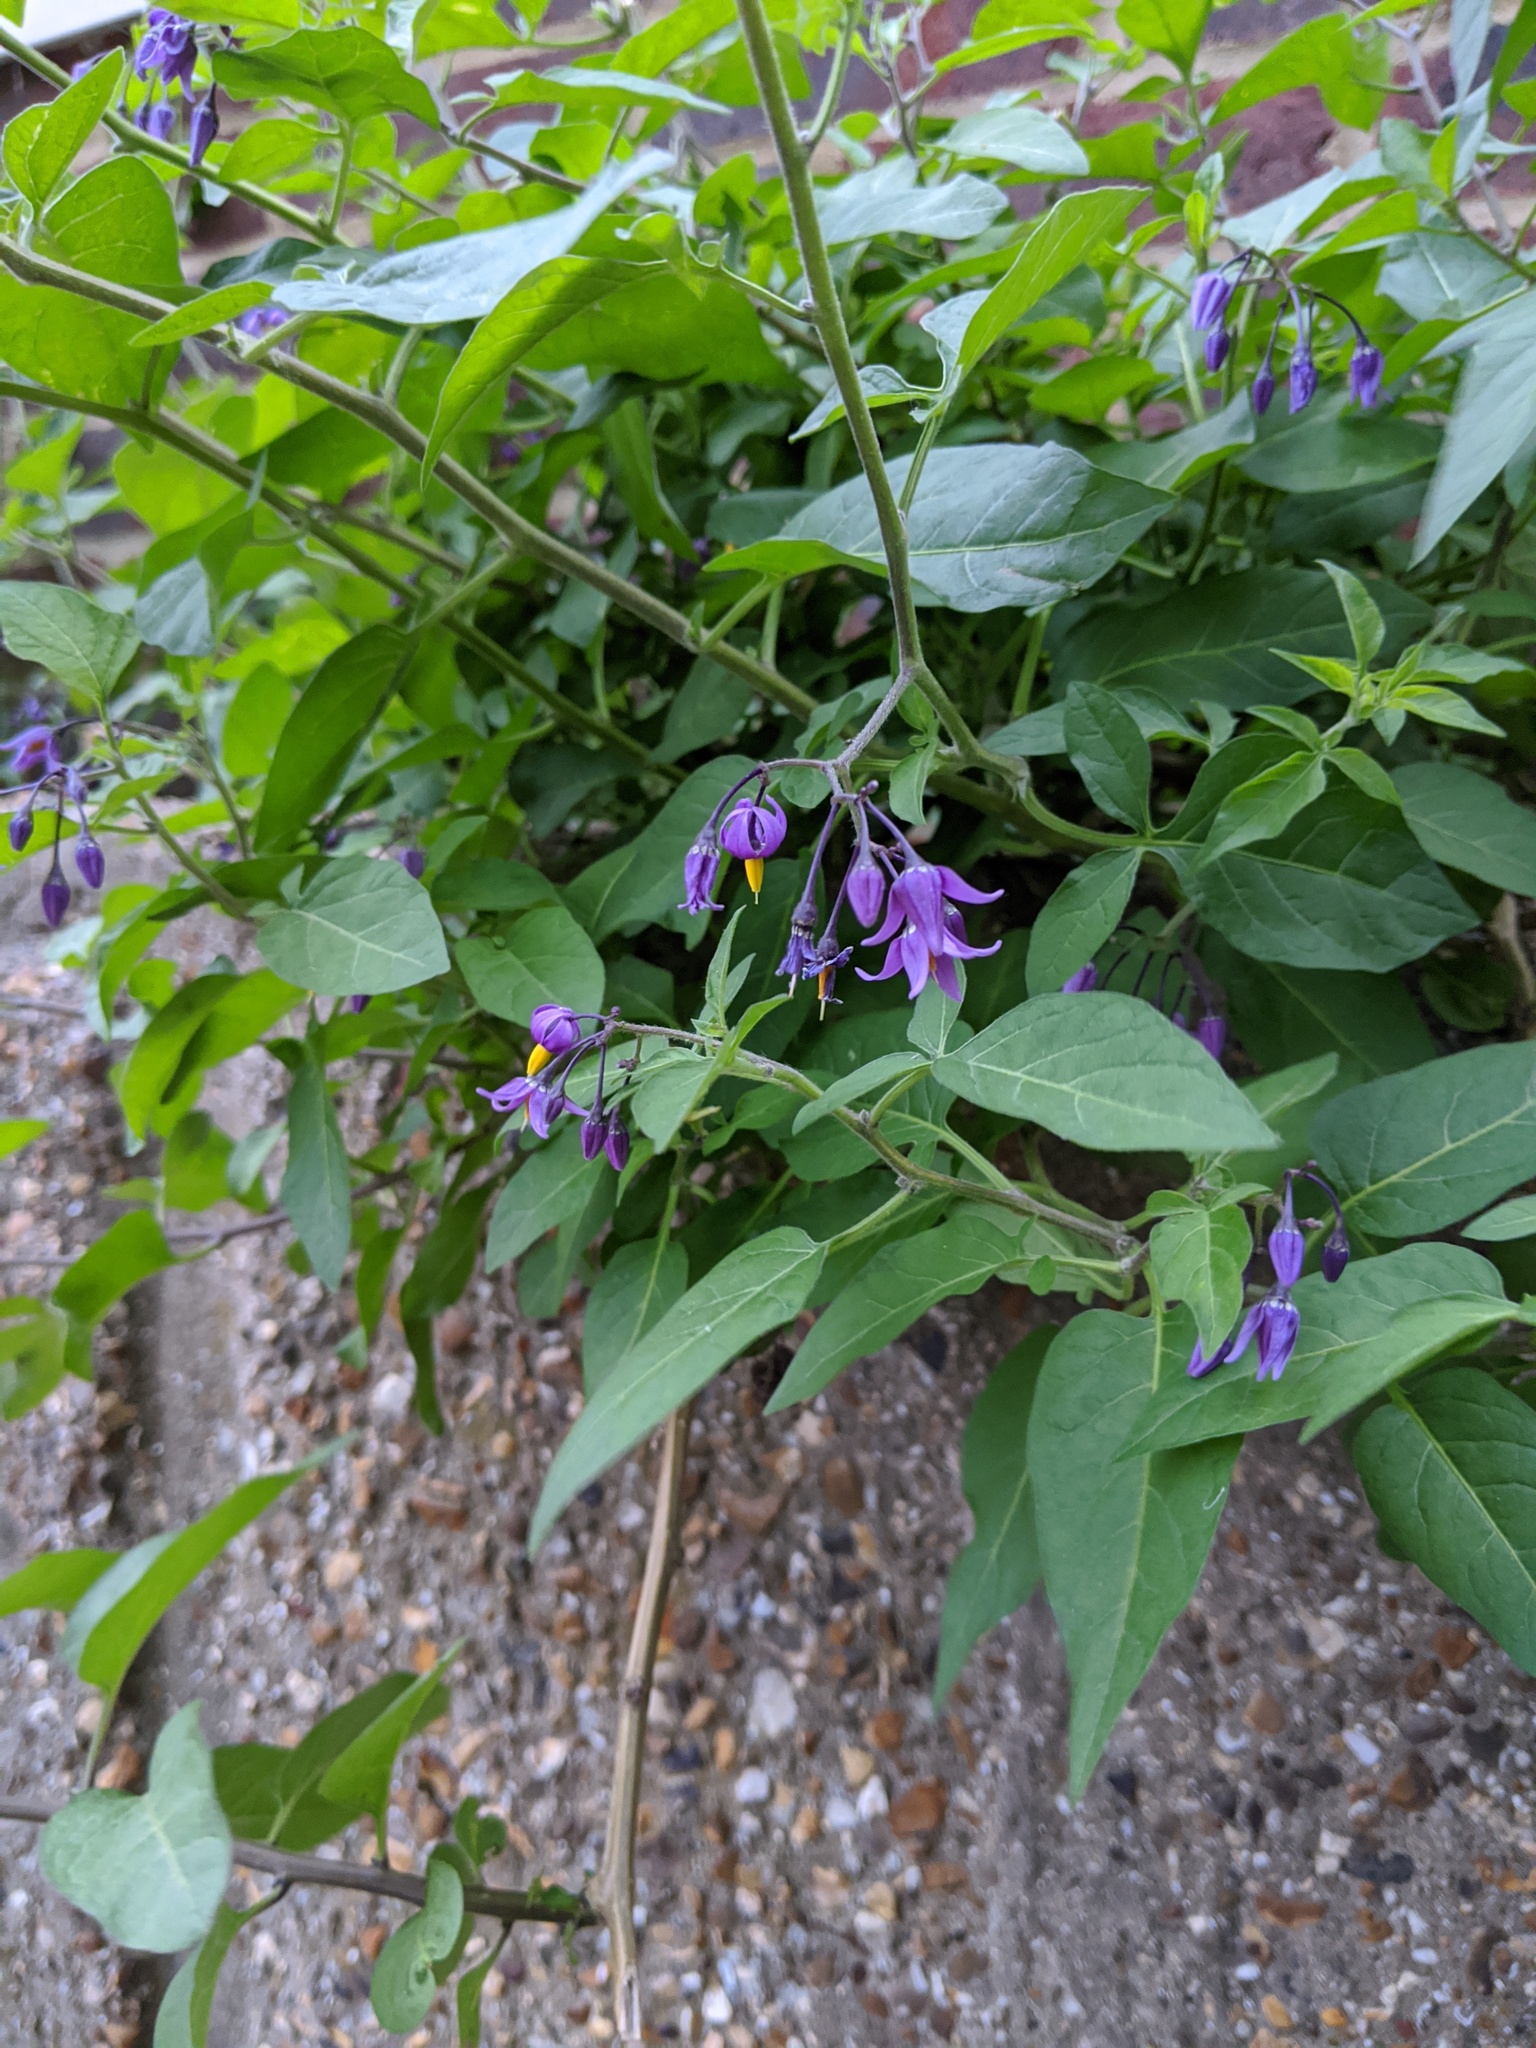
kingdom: Plantae
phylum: Tracheophyta
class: Magnoliopsida
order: Solanales
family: Solanaceae
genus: Solanum
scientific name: Solanum dulcamara
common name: Climbing nightshade
